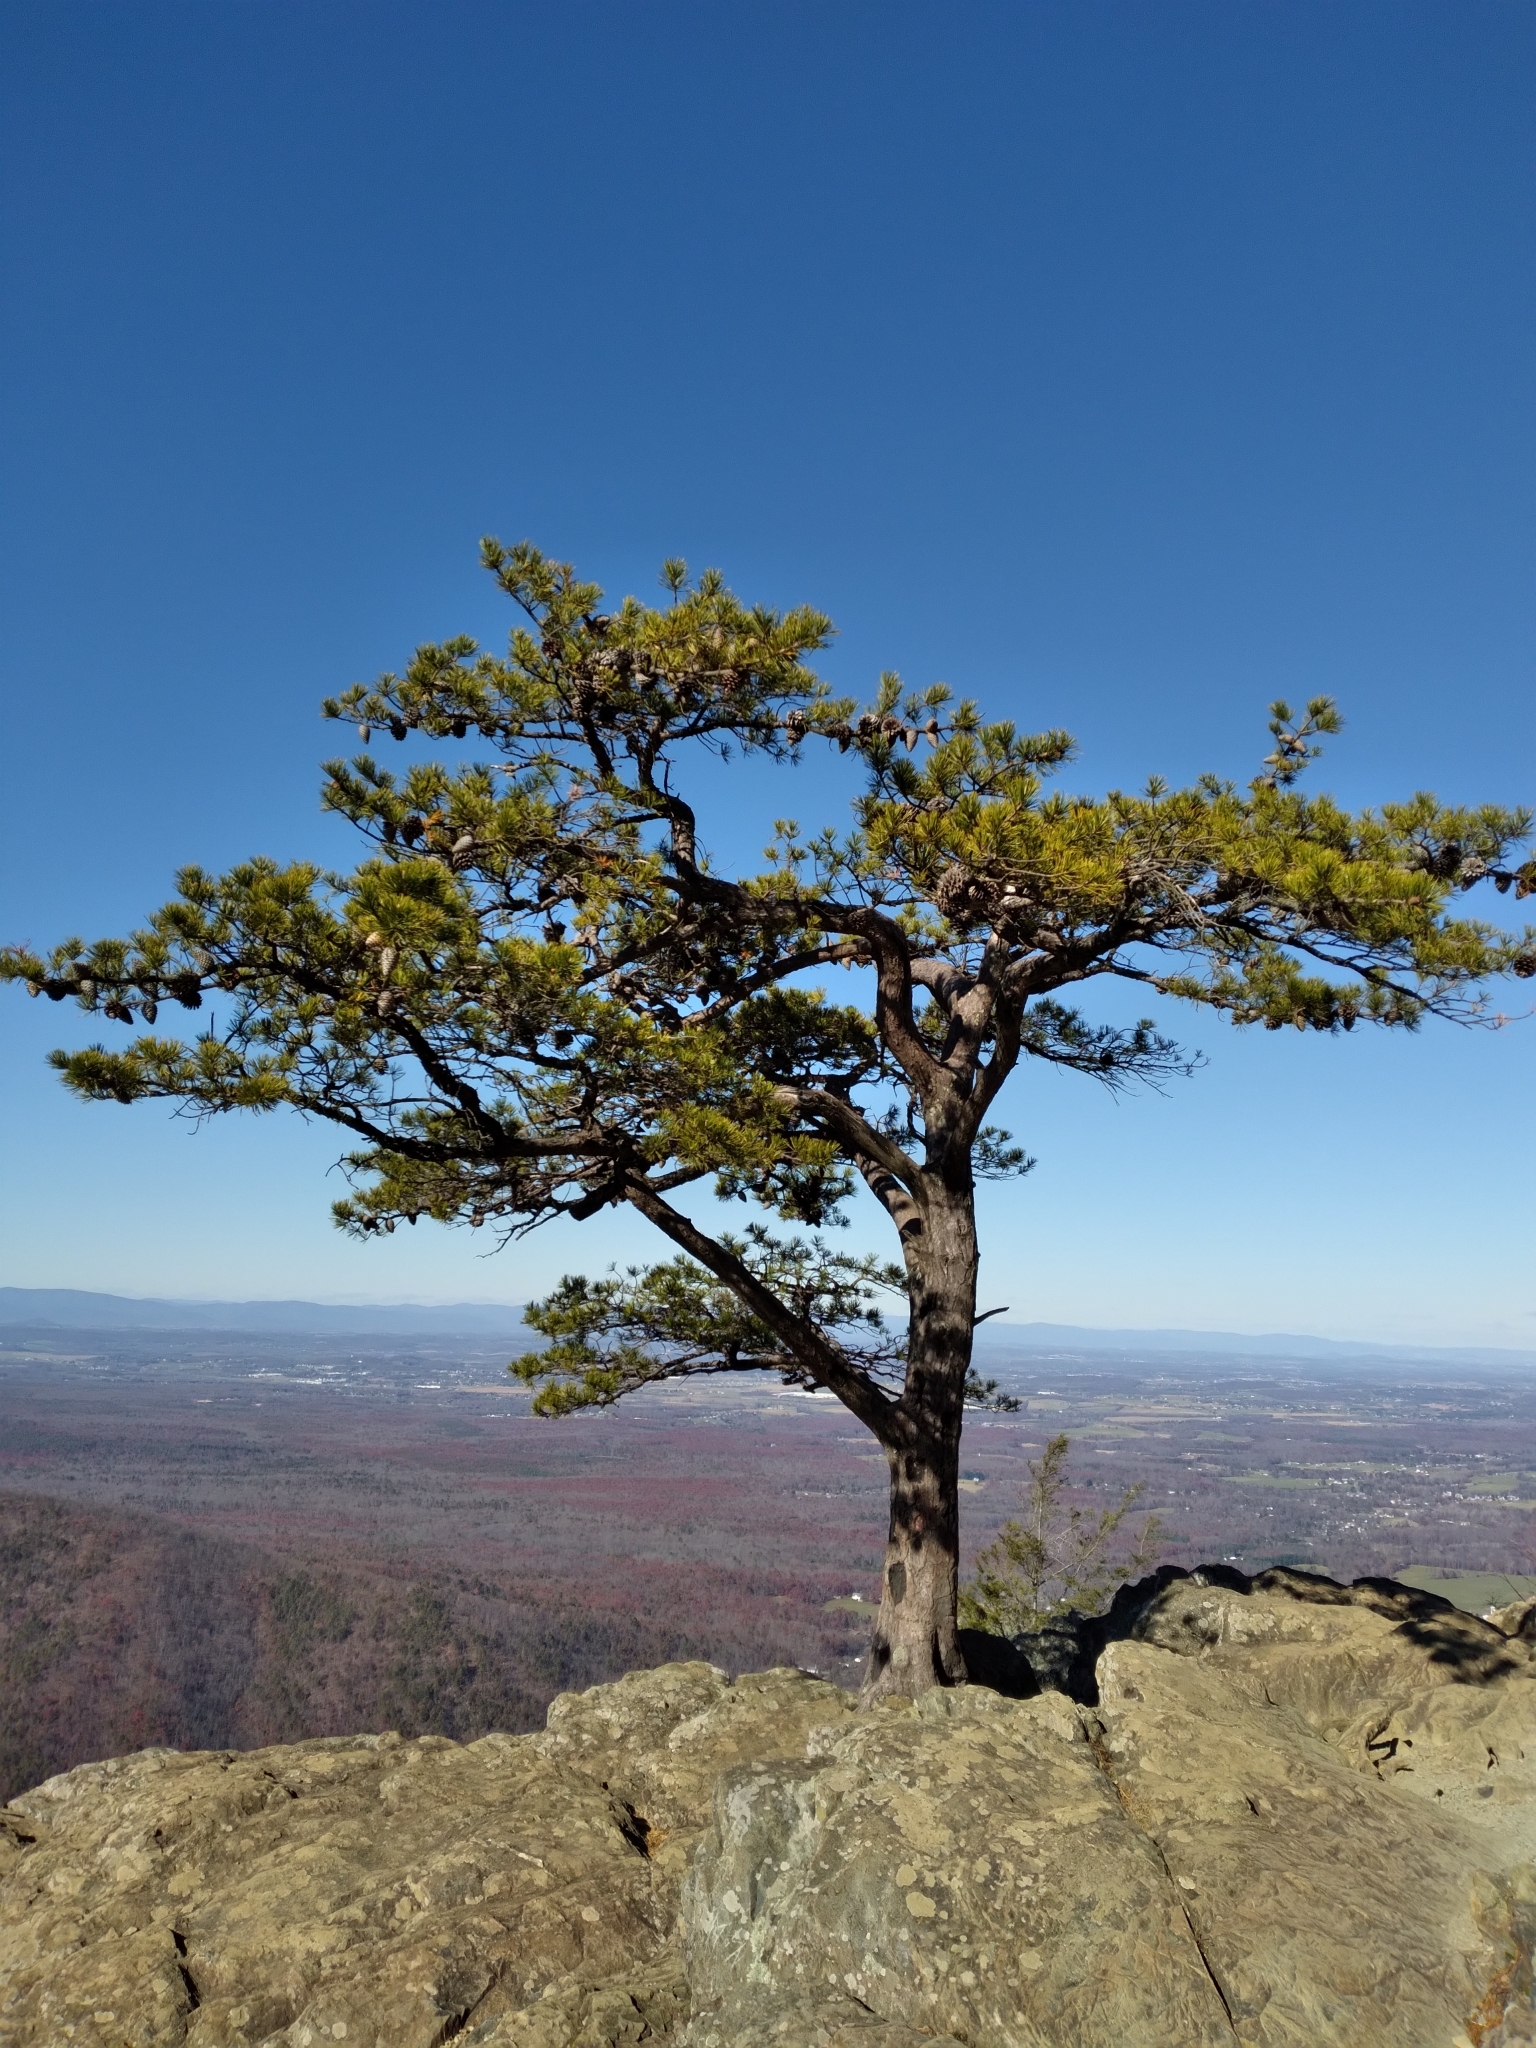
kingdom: Plantae
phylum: Tracheophyta
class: Pinopsida
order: Pinales
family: Pinaceae
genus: Pinus
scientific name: Pinus pungens
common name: Hickory pine
